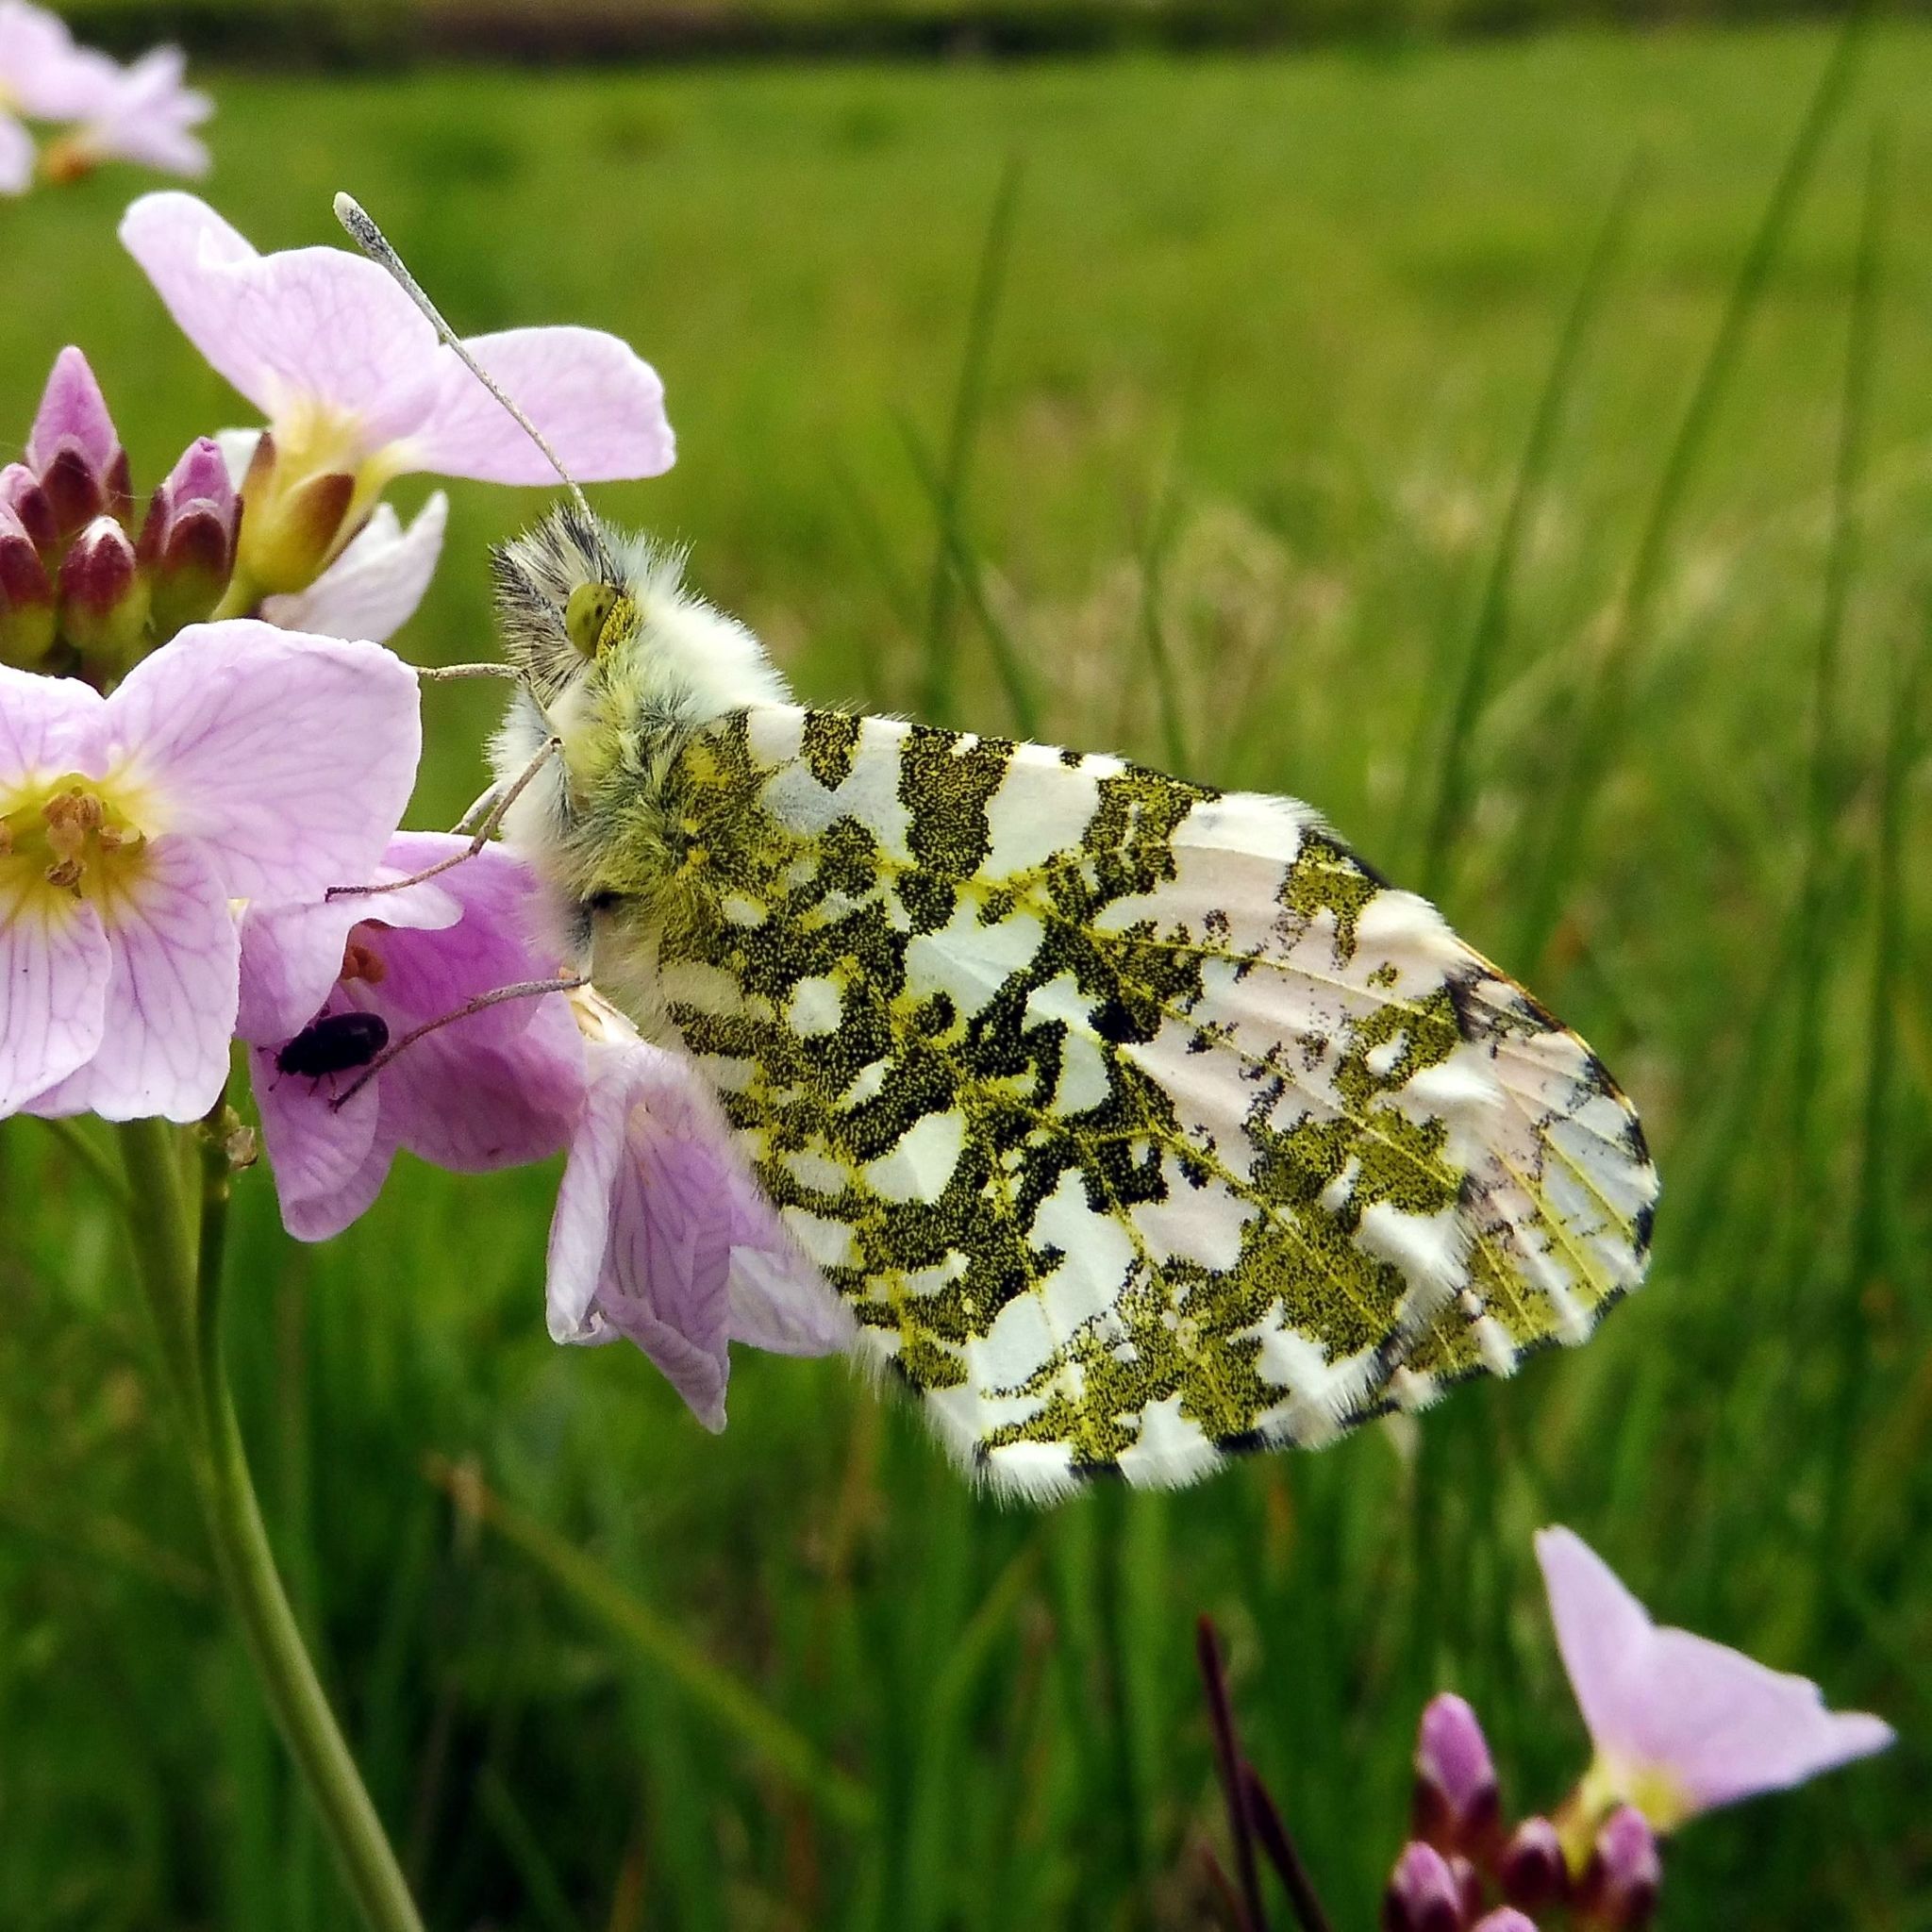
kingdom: Animalia
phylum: Arthropoda
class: Insecta
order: Lepidoptera
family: Pieridae
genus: Anthocharis
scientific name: Anthocharis cardamines
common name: Orange-tip
